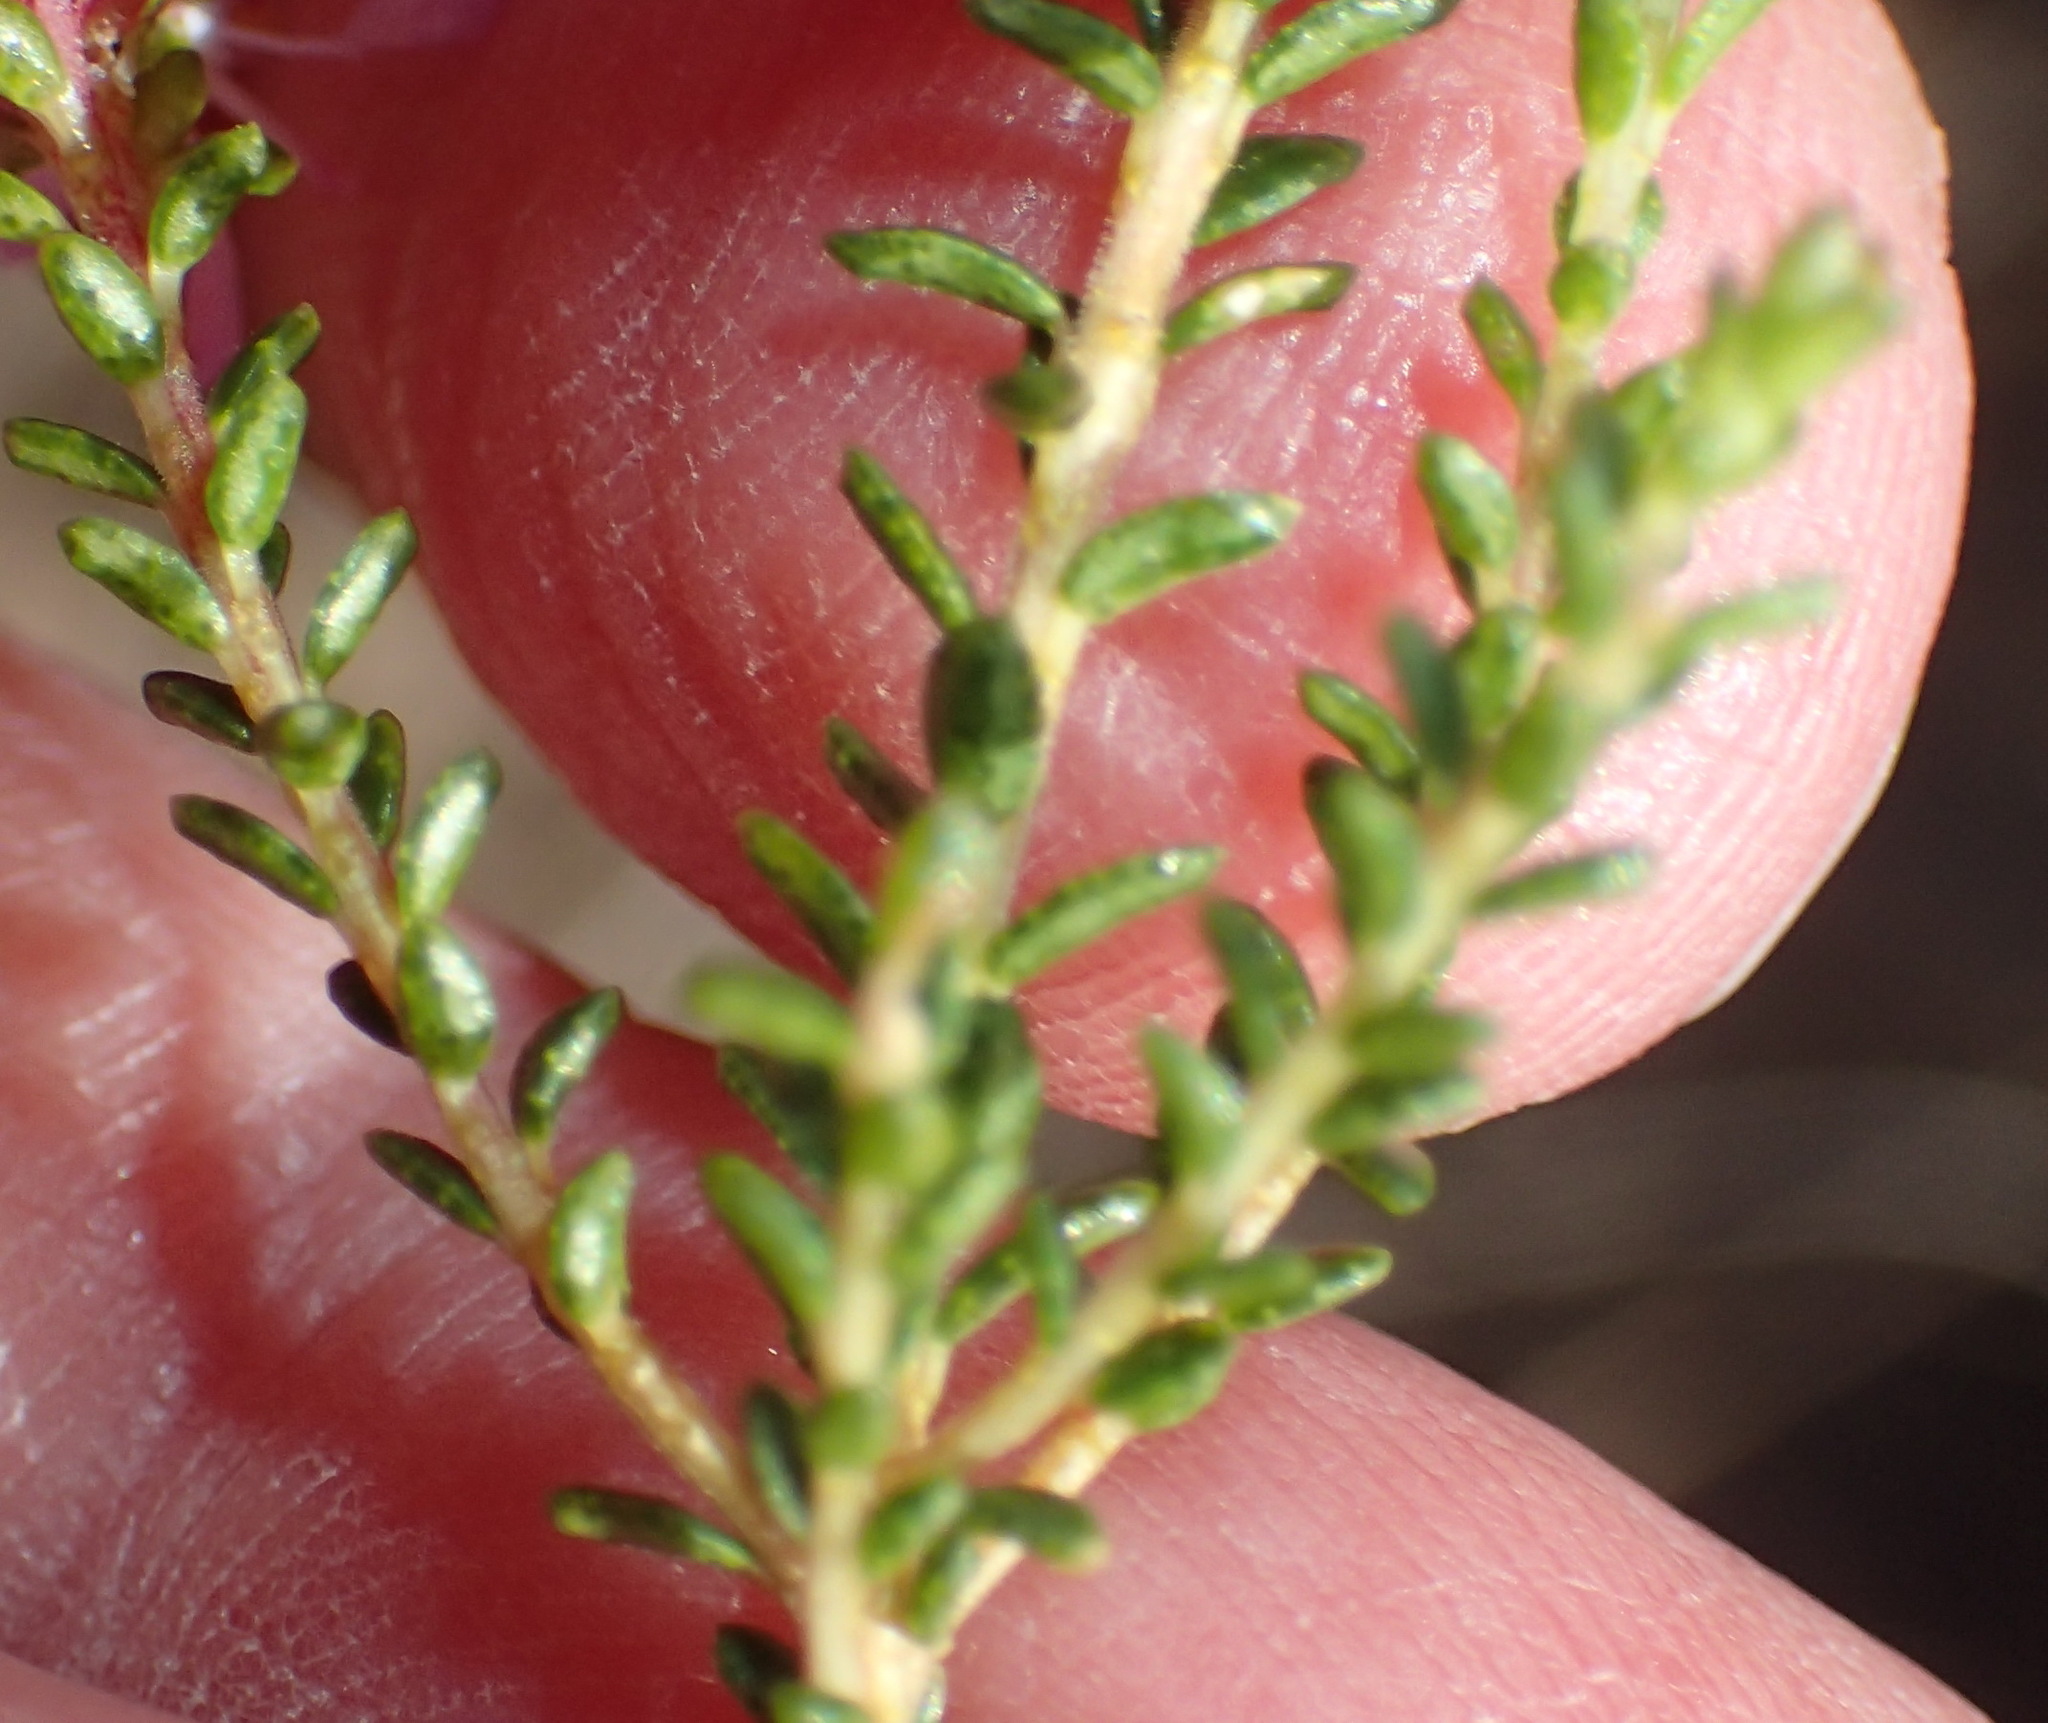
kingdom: Plantae
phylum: Tracheophyta
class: Magnoliopsida
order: Sapindales
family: Rutaceae
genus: Agathosma
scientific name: Agathosma capensis
